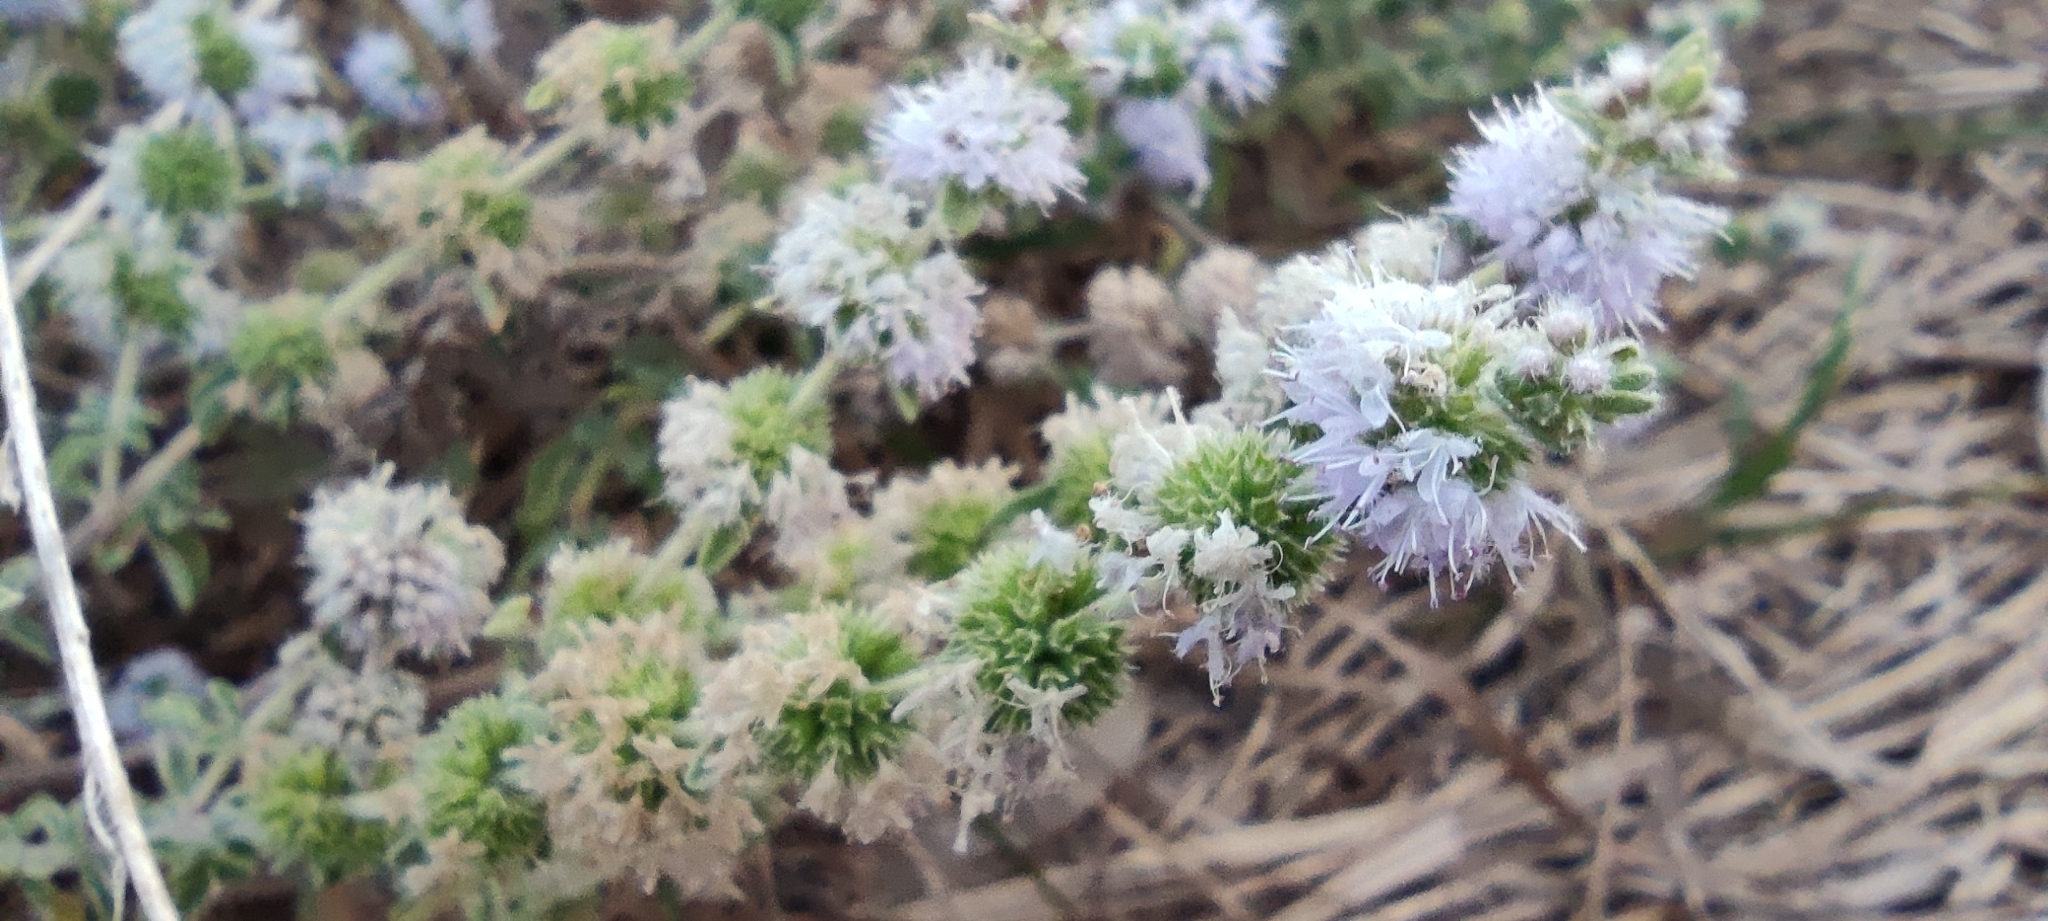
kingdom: Plantae
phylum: Tracheophyta
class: Magnoliopsida
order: Lamiales
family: Lamiaceae
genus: Mentha
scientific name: Mentha pulegium
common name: Pennyroyal
